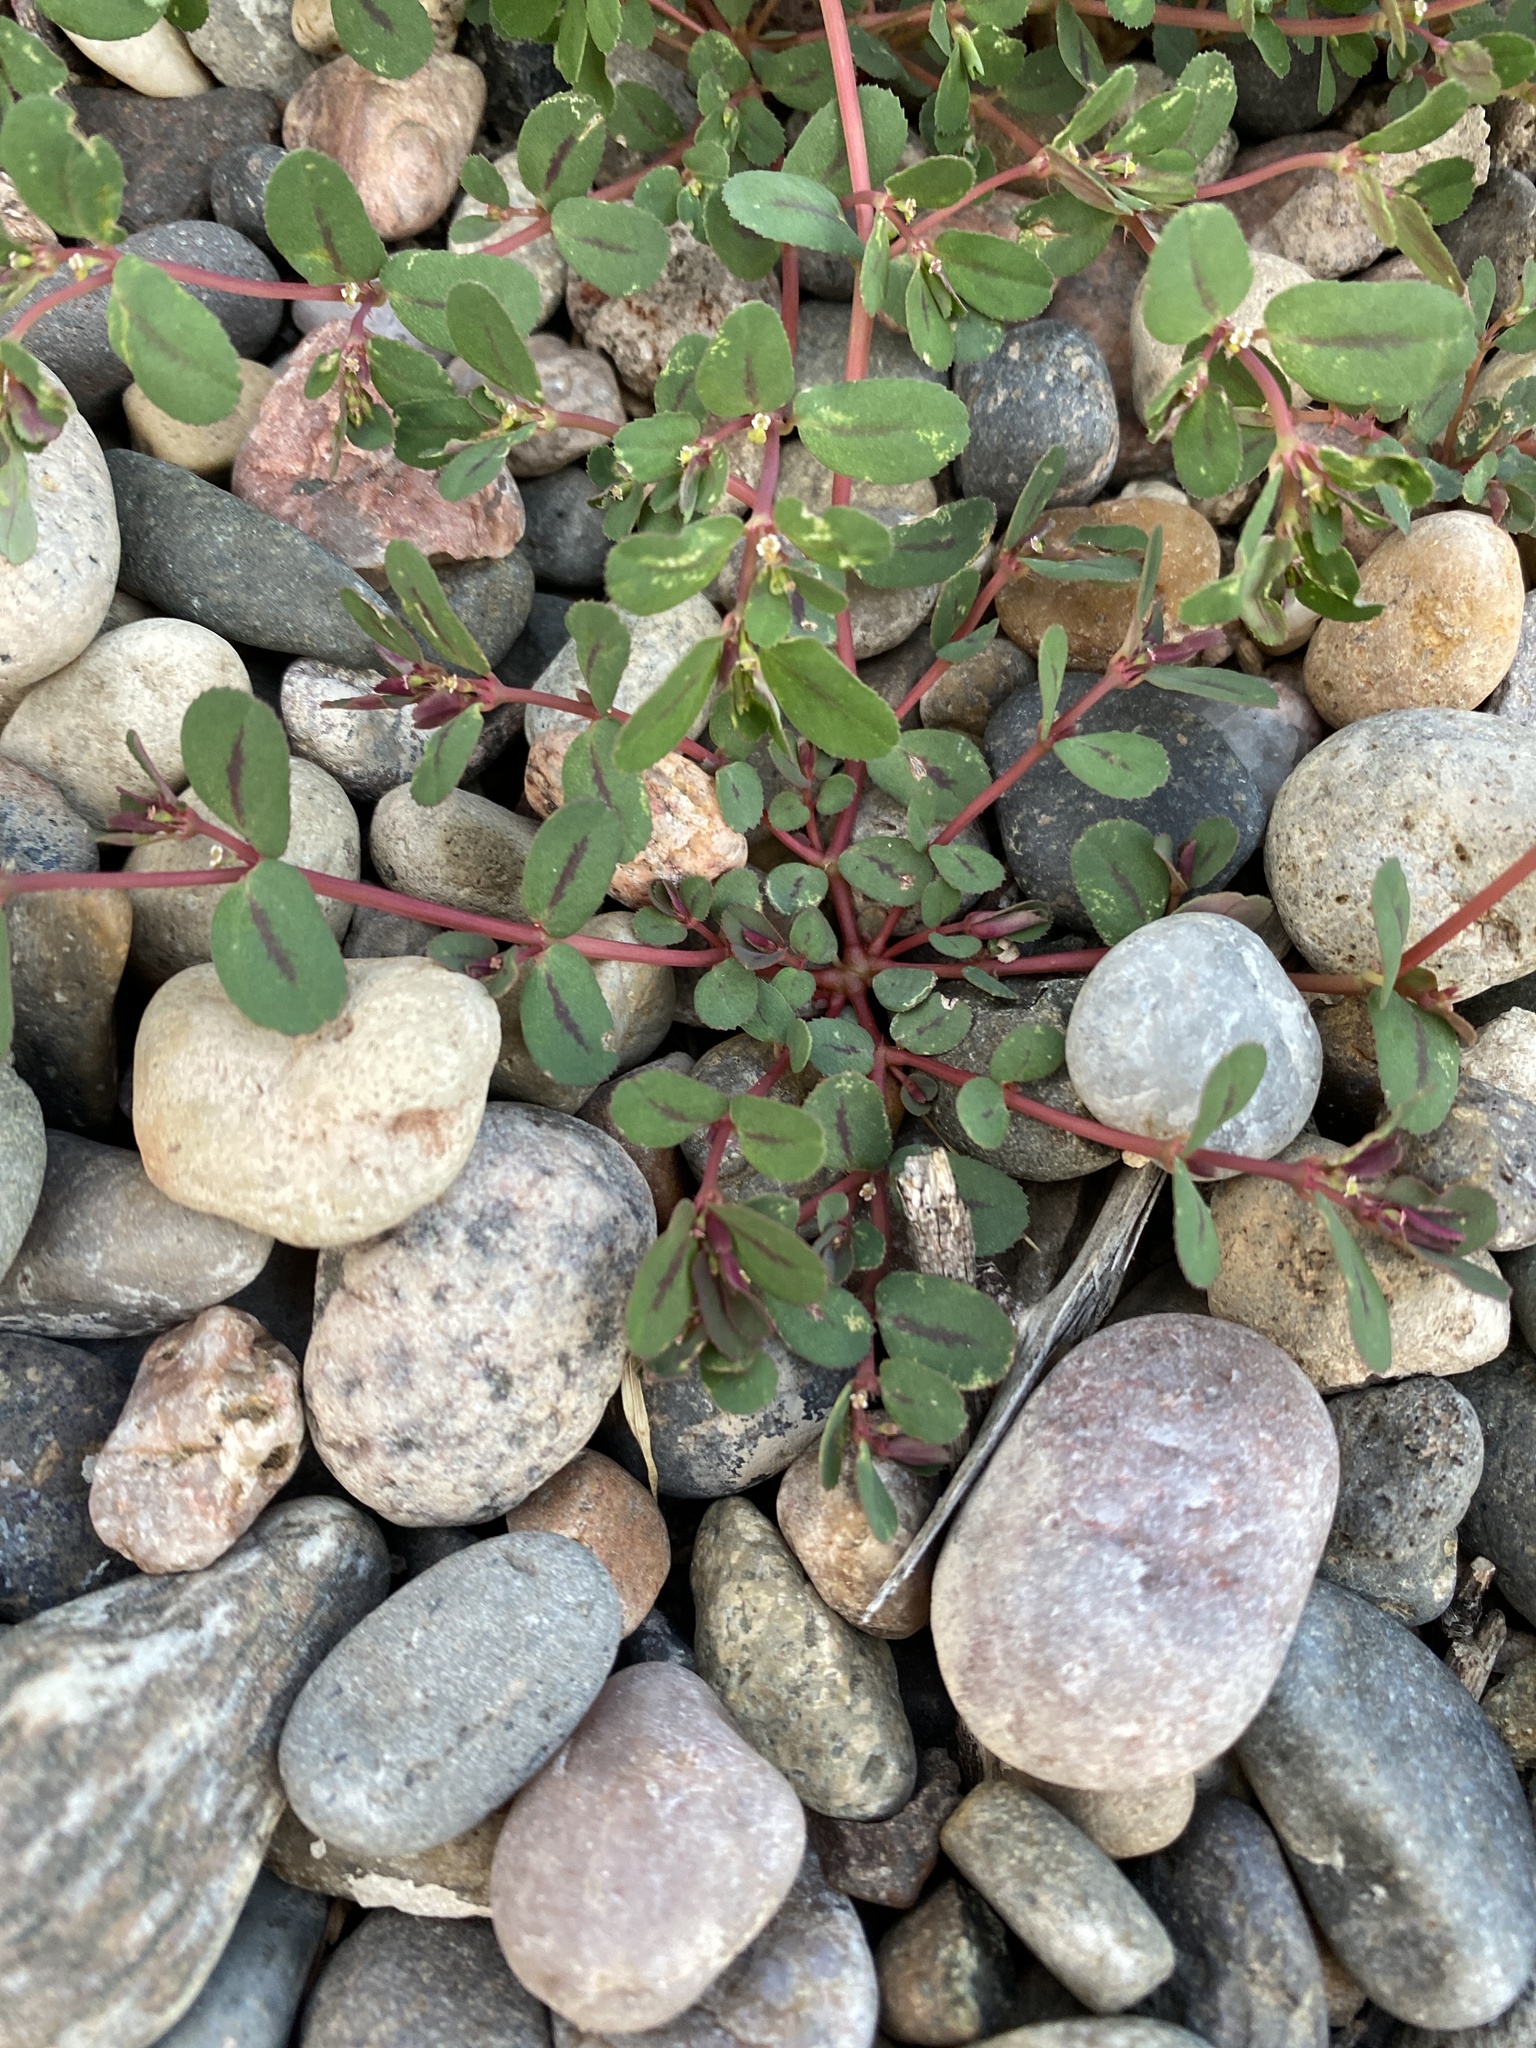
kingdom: Plantae
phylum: Tracheophyta
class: Magnoliopsida
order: Malpighiales
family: Euphorbiaceae
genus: Euphorbia
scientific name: Euphorbia serpillifolia
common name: Thyme-leaf spurge
